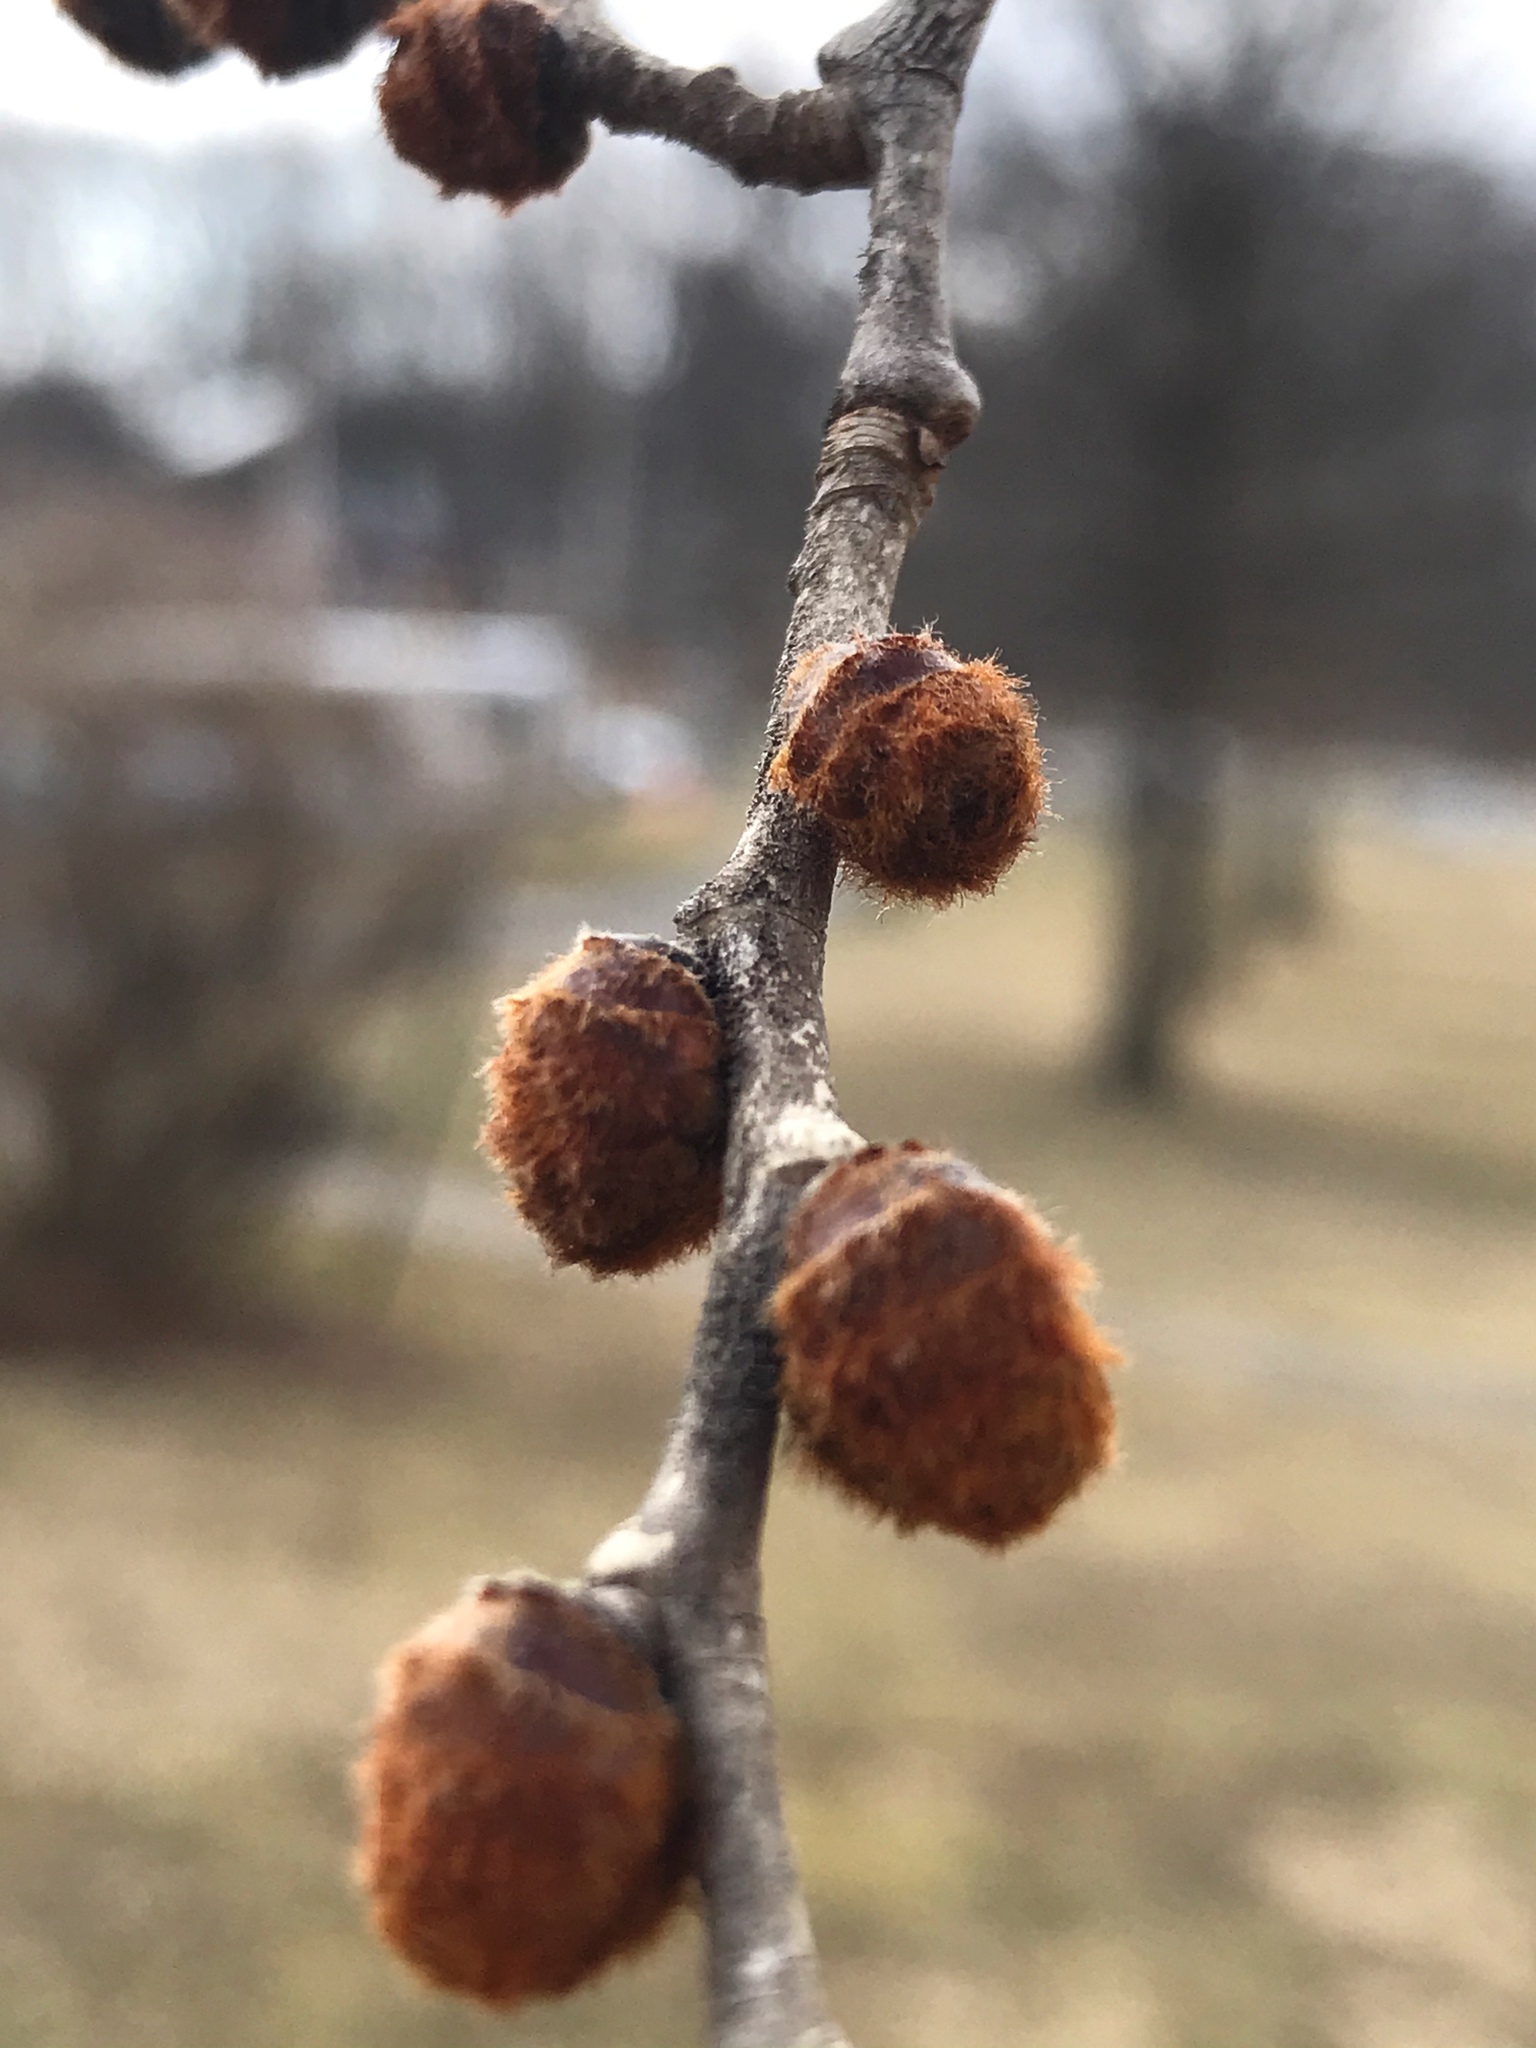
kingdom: Plantae
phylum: Tracheophyta
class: Magnoliopsida
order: Rosales
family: Ulmaceae
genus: Ulmus
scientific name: Ulmus rubra
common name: Slippery elm
